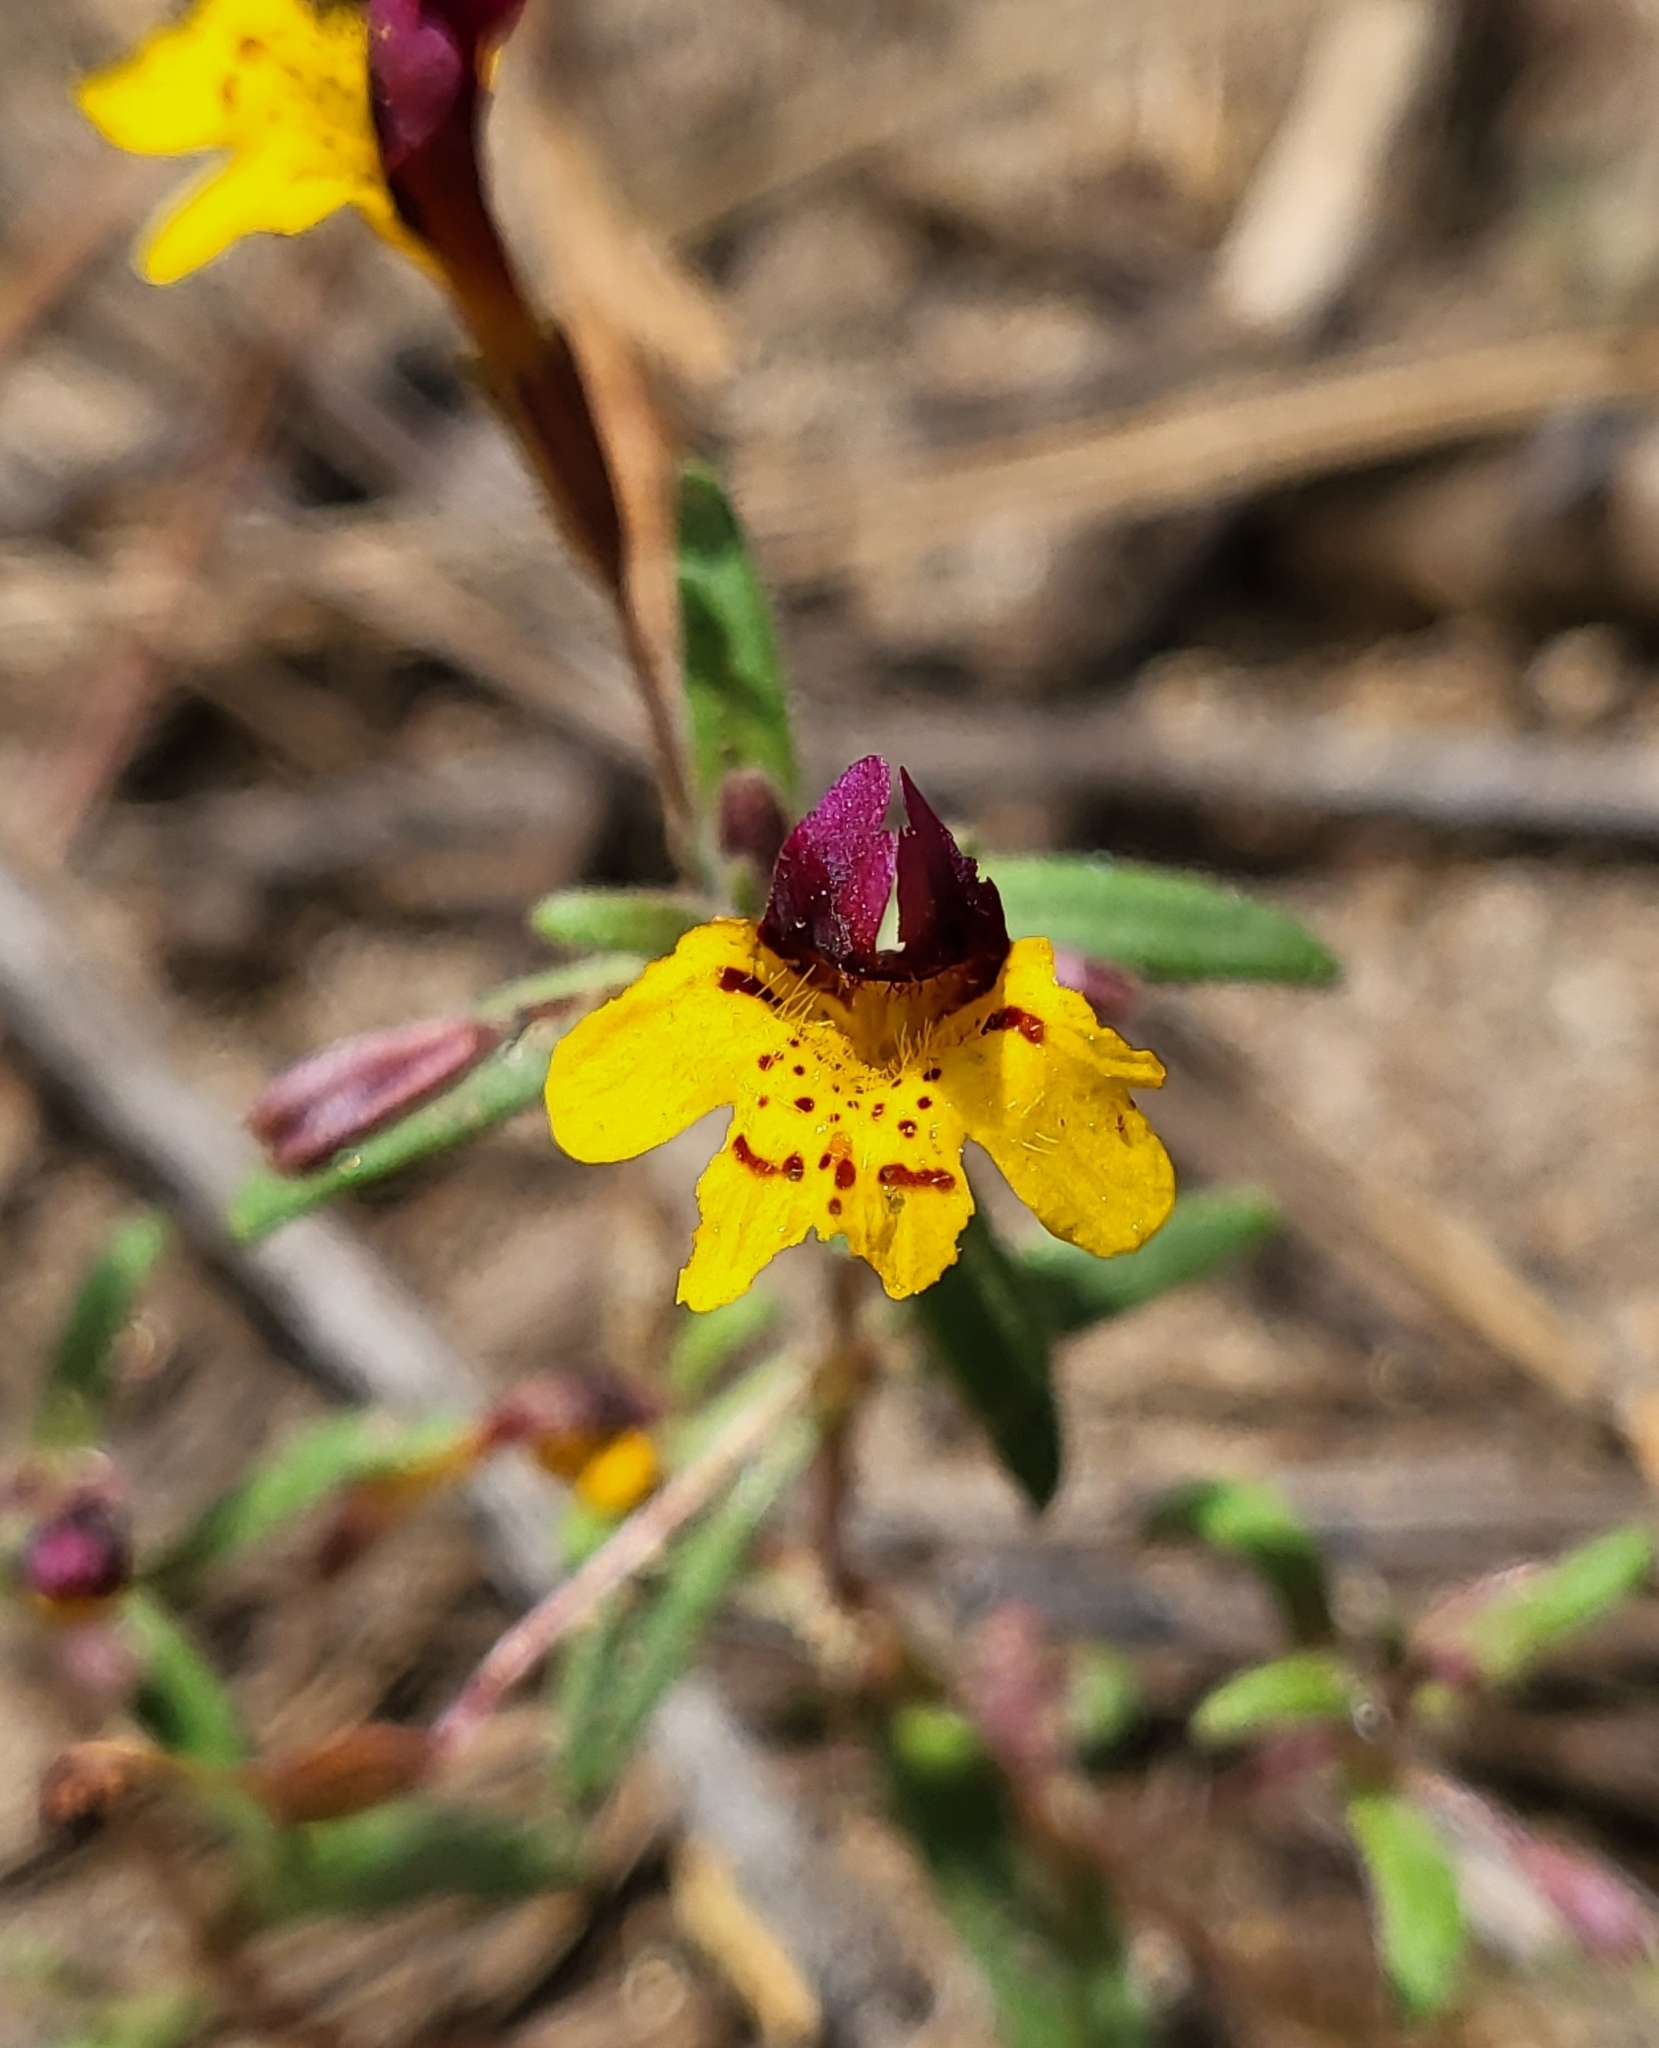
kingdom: Plantae
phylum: Tracheophyta
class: Magnoliopsida
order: Lamiales
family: Phrymaceae
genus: Erythranthe
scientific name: Erythranthe barbata
